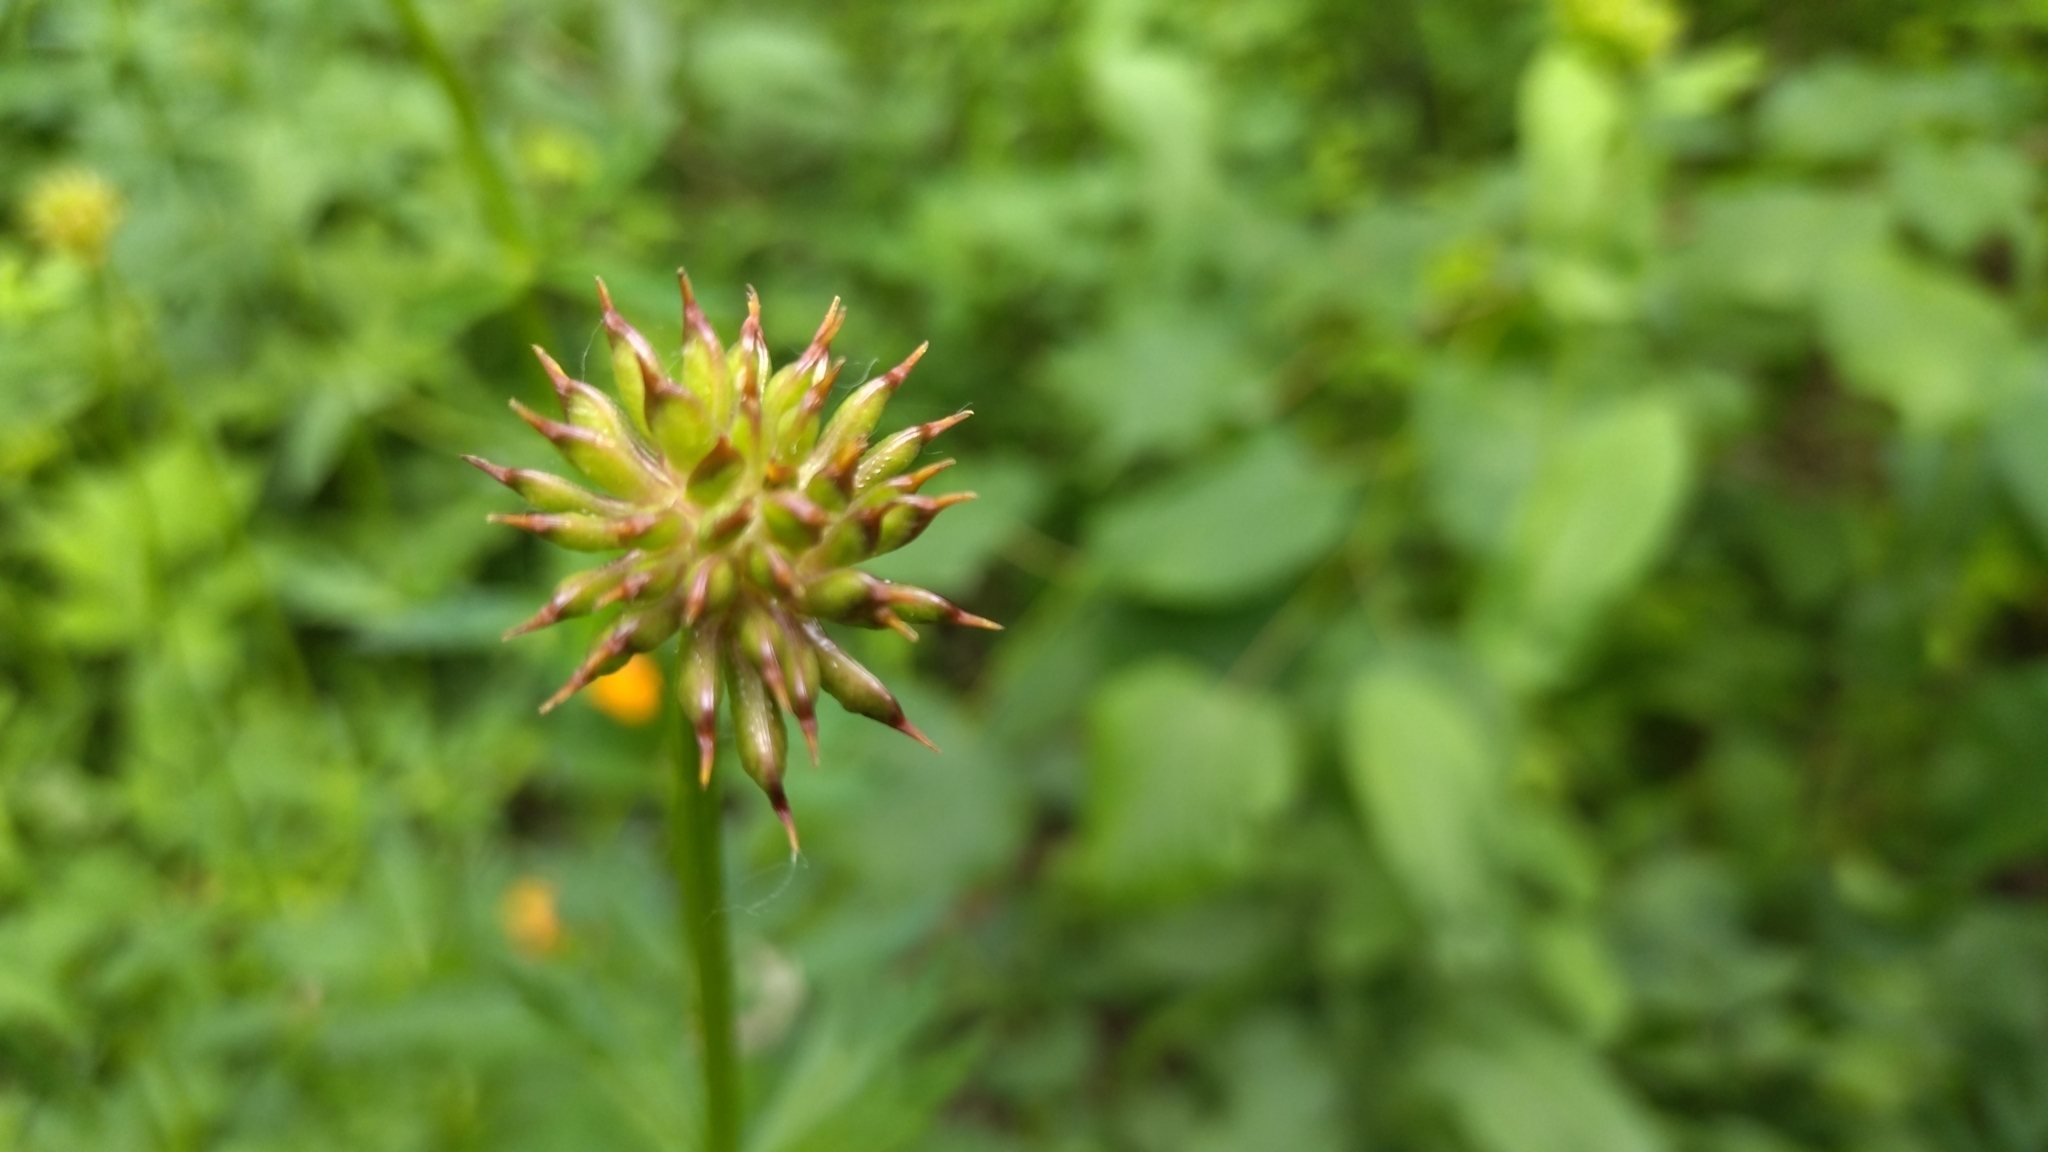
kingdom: Plantae
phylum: Tracheophyta
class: Magnoliopsida
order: Ranunculales
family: Ranunculaceae
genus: Trollius
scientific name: Trollius asiaticus
